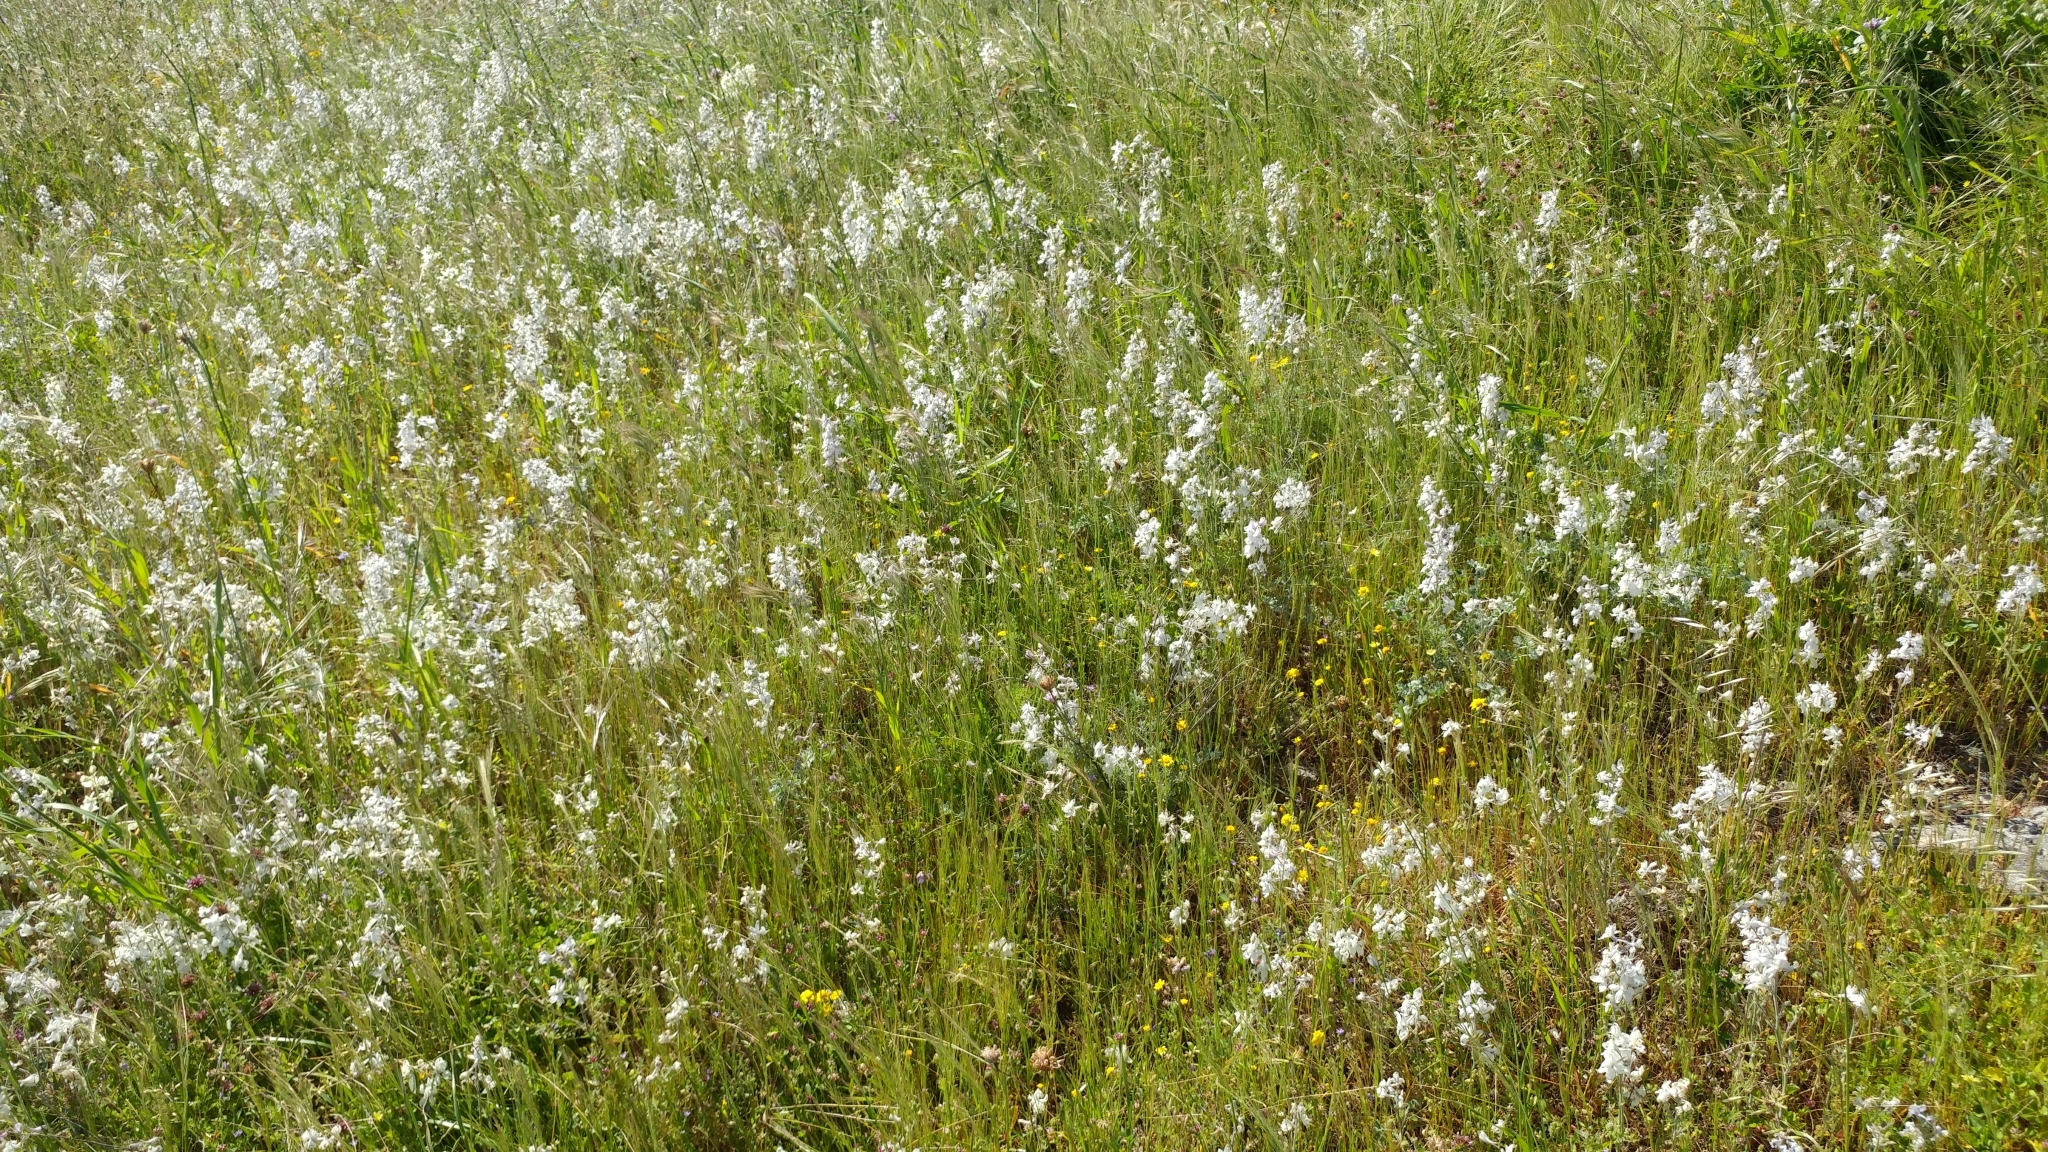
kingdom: Plantae
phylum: Tracheophyta
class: Magnoliopsida
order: Ranunculales
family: Ranunculaceae
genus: Delphinium
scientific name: Delphinium variegatum
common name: Royal larkspur
